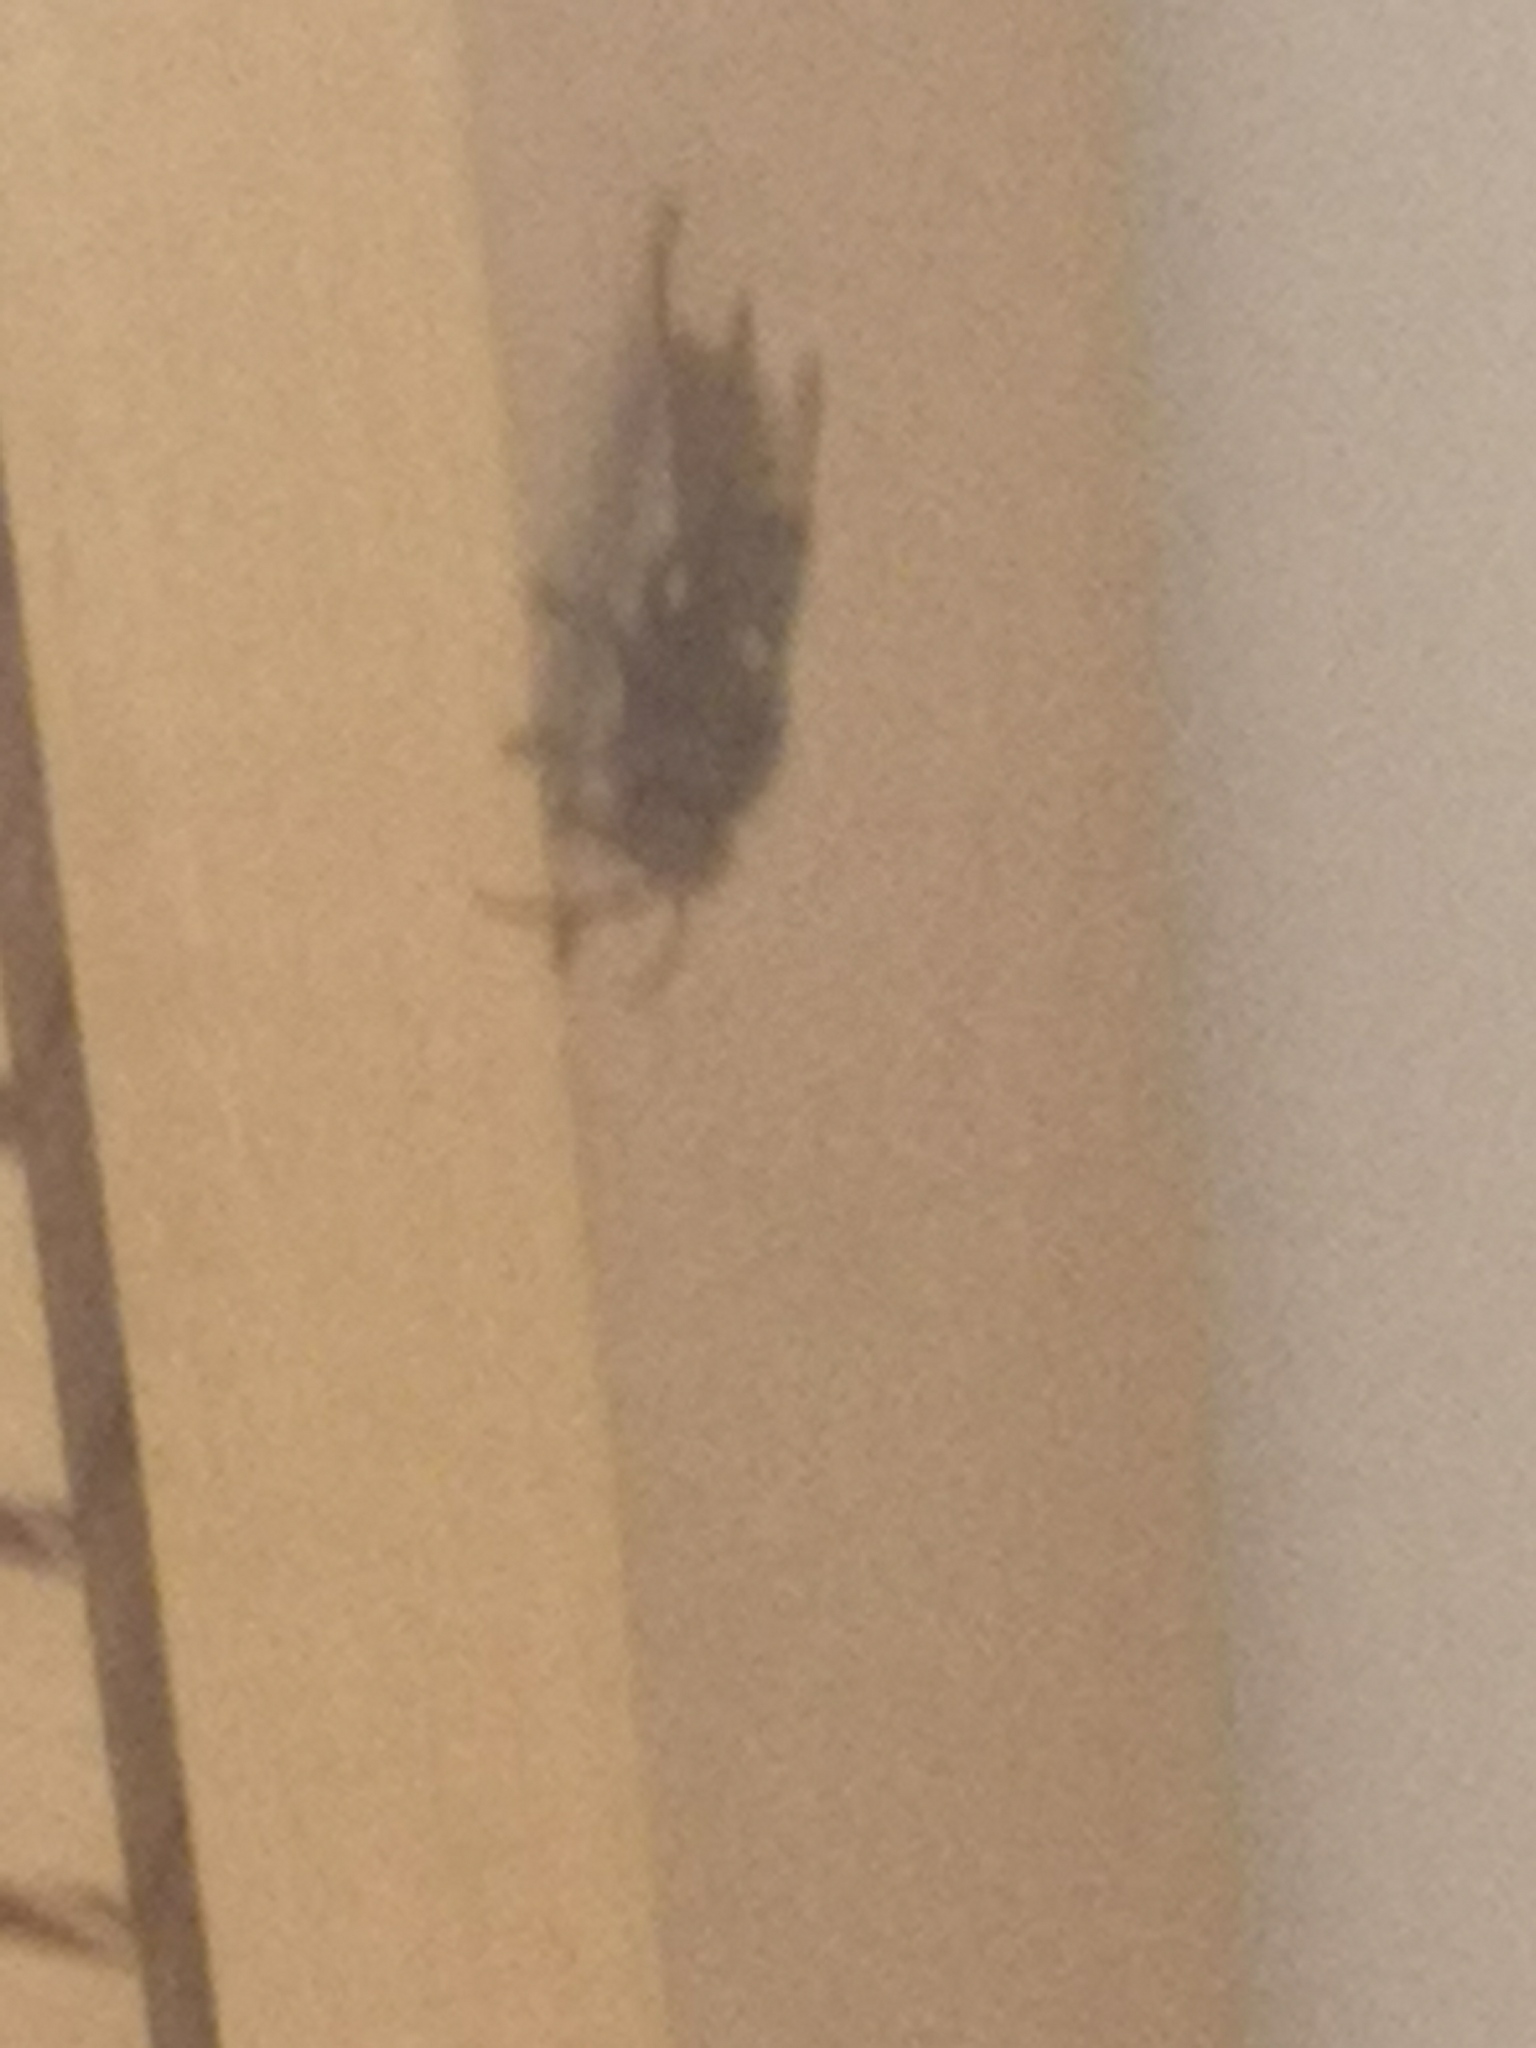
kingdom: Animalia
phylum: Arthropoda
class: Insecta
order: Hymenoptera
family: Vespidae
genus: Vespa
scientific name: Vespa crabro
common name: Hornet
